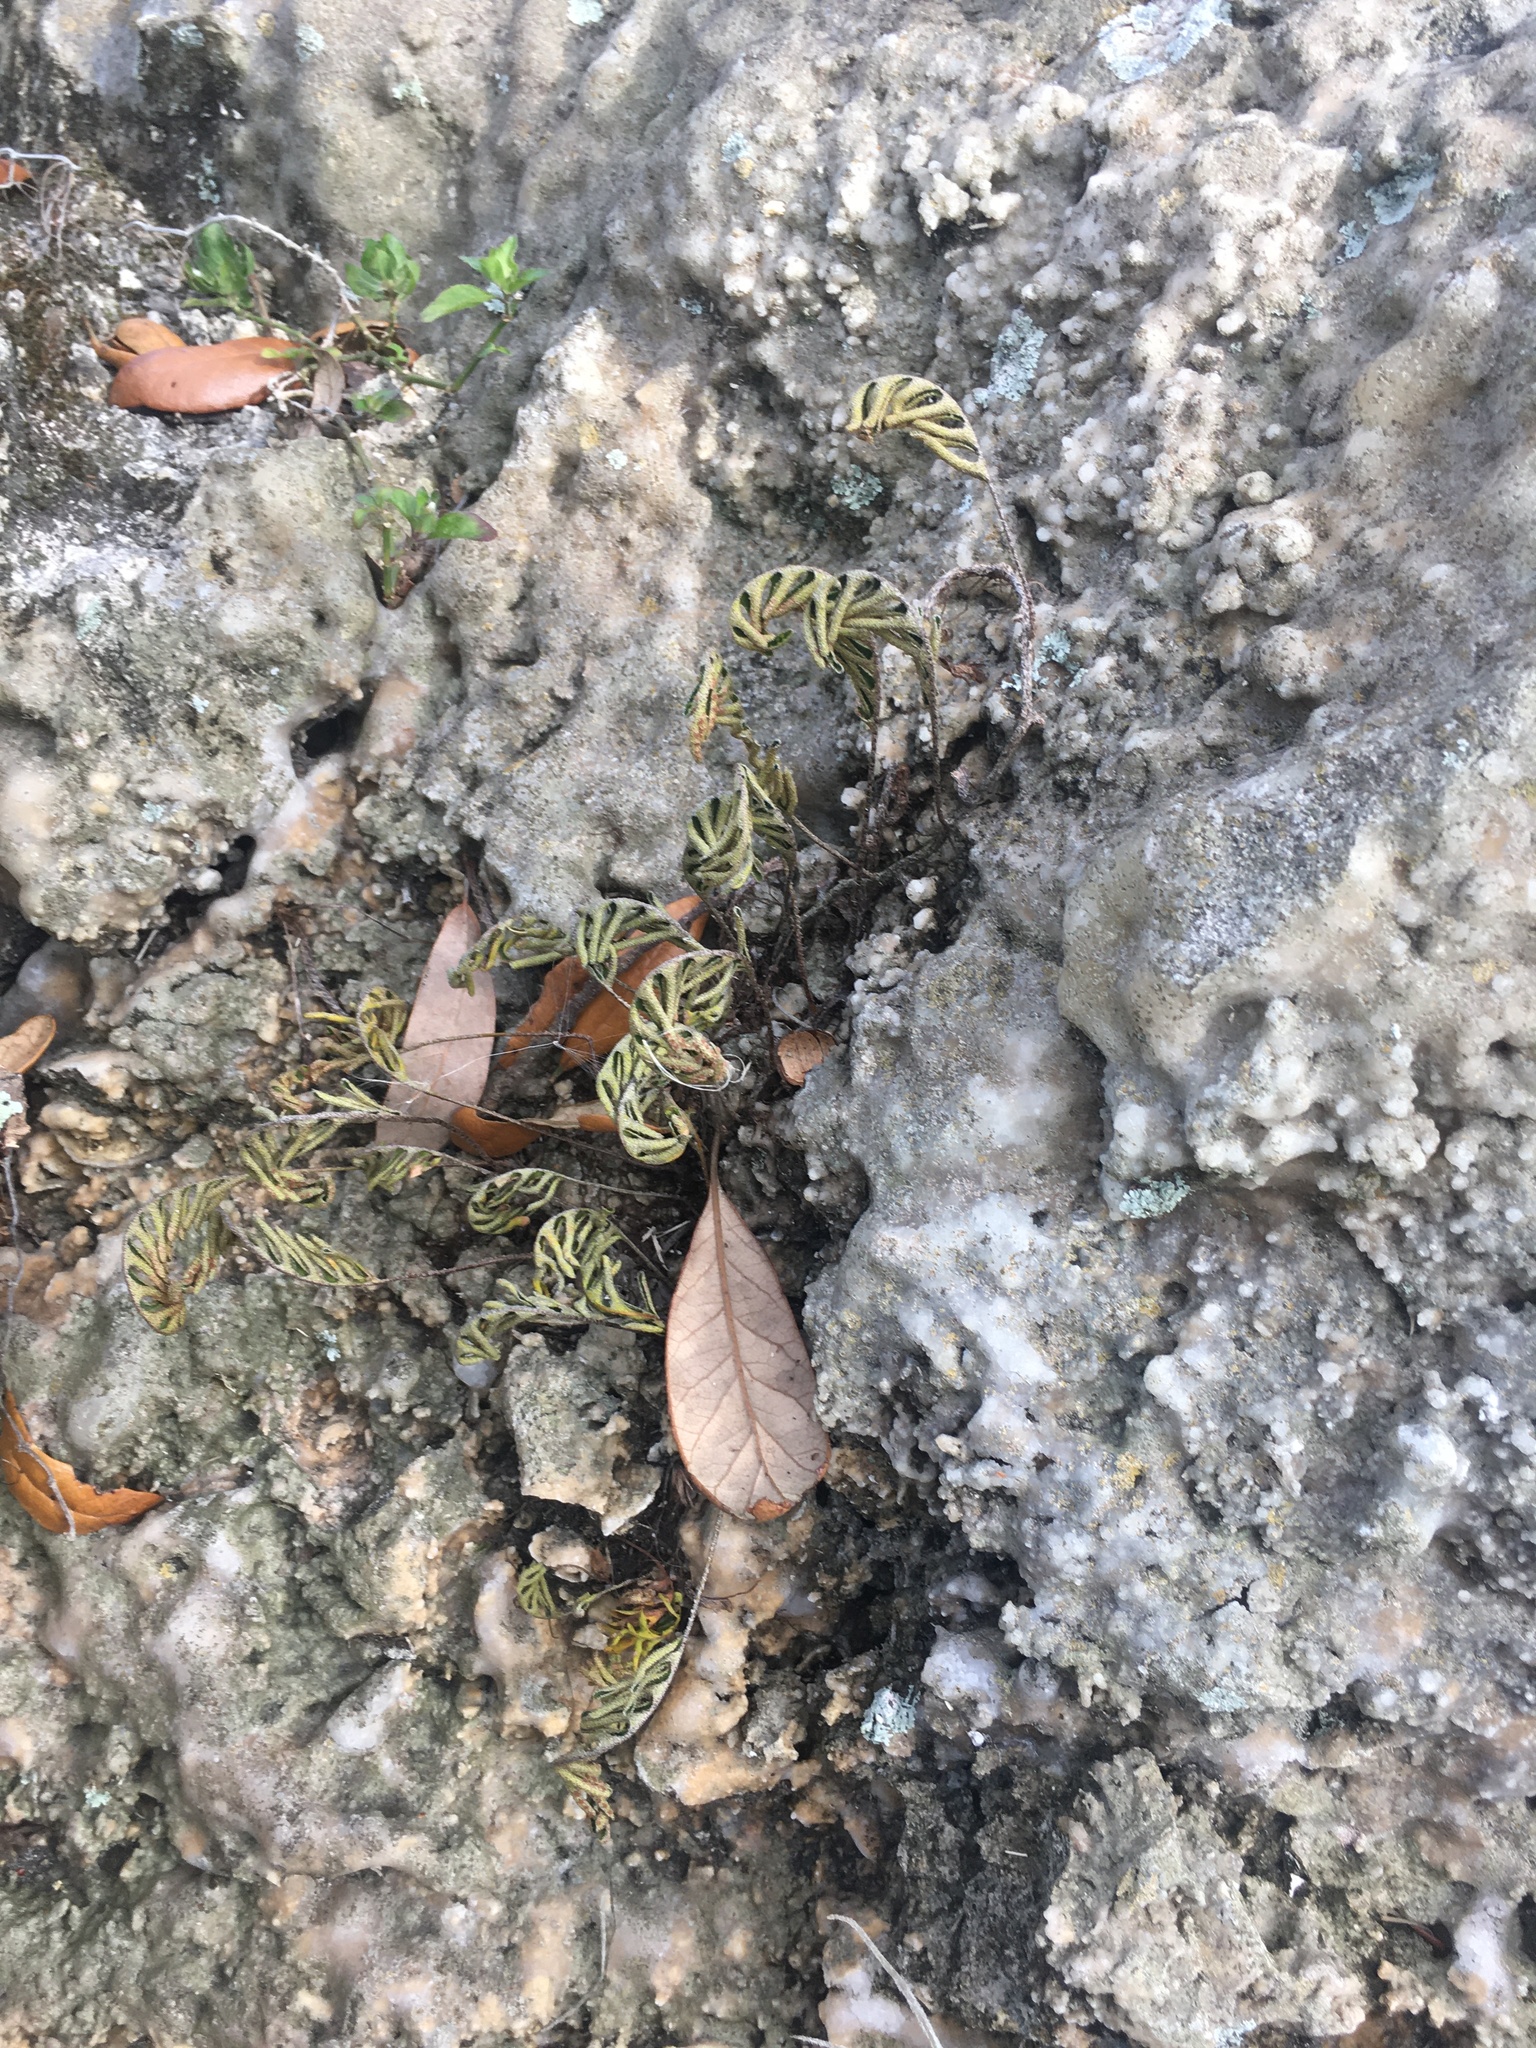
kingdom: Plantae
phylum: Tracheophyta
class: Polypodiopsida
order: Polypodiales
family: Polypodiaceae
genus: Pleopeltis
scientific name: Pleopeltis michauxiana
